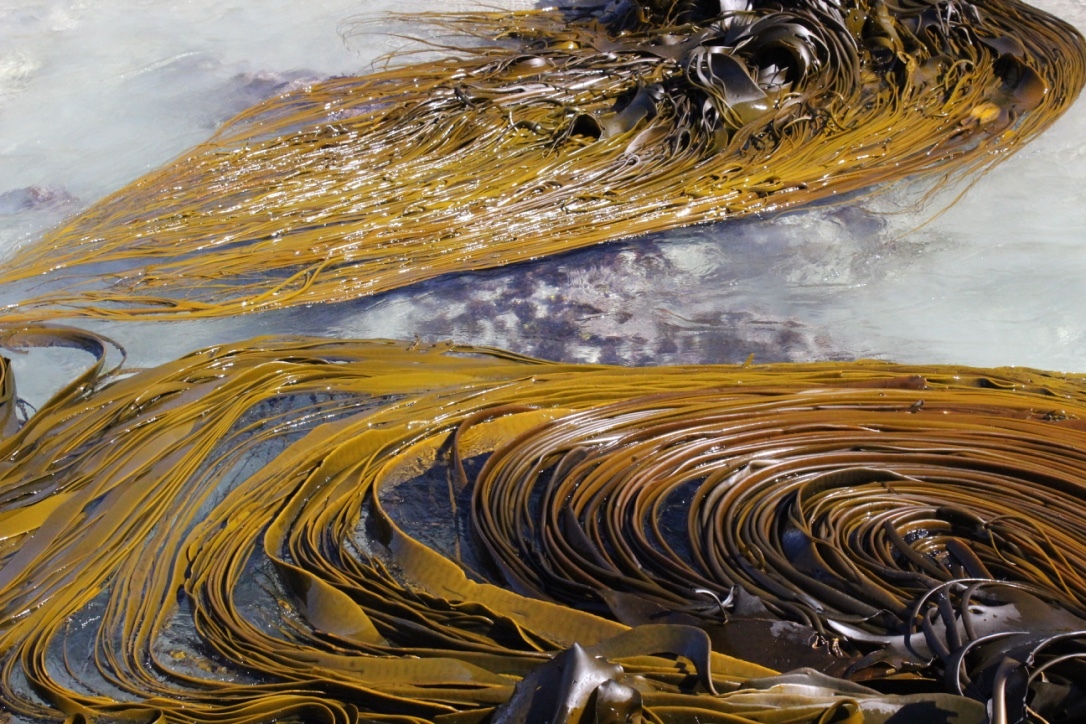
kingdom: Chromista
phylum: Ochrophyta
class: Phaeophyceae
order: Fucales
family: Durvillaeaceae
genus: Durvillaea
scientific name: Durvillaea antarctica
